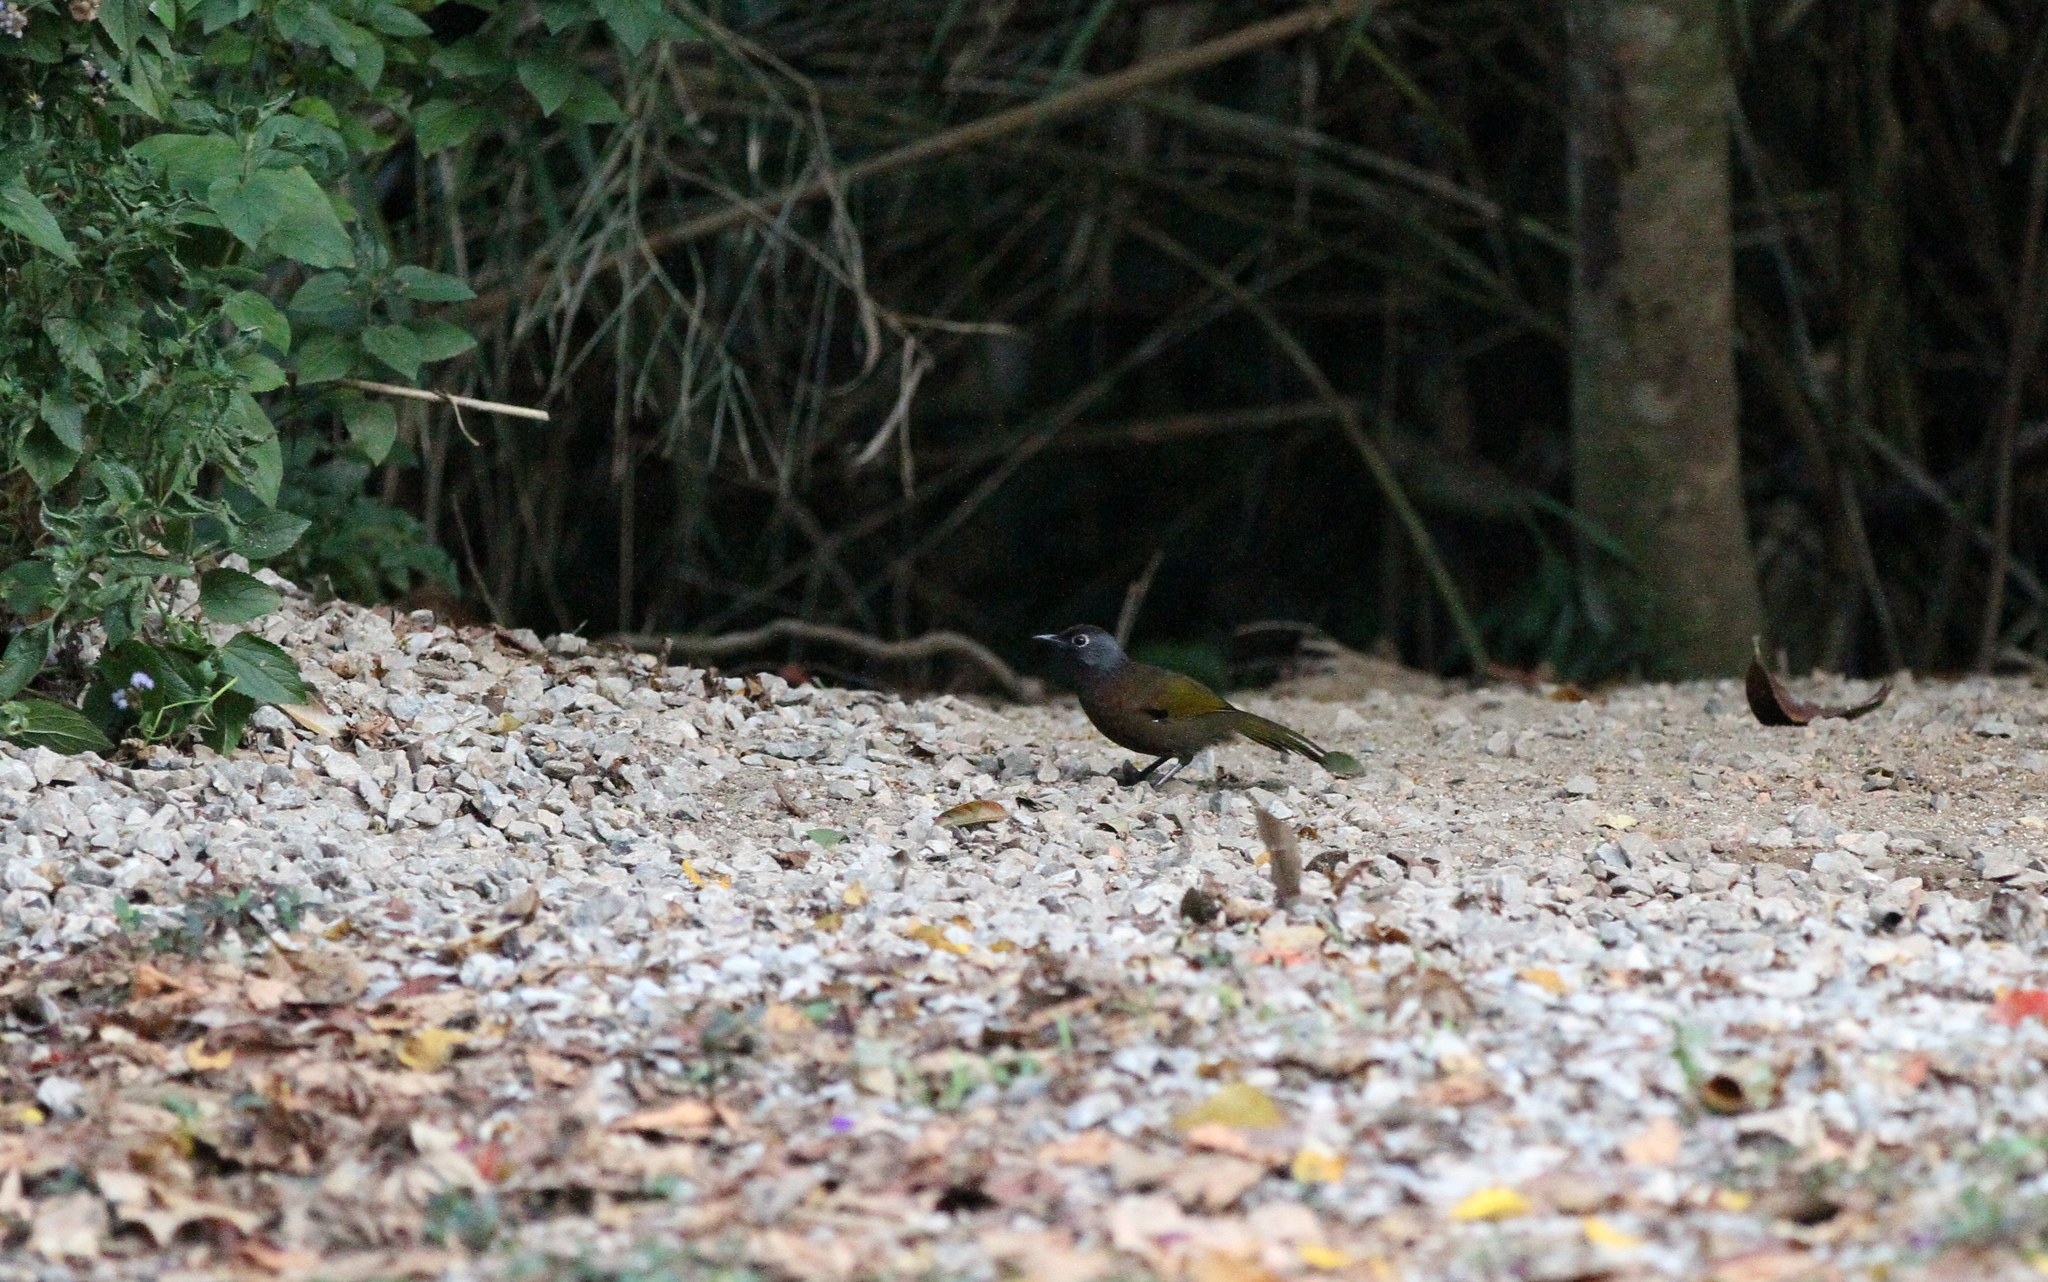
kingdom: Animalia
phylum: Chordata
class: Aves
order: Passeriformes
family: Leiothrichidae
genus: Trochalopteron
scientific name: Trochalopteron peninsulae
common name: Malayan laughingthrush
